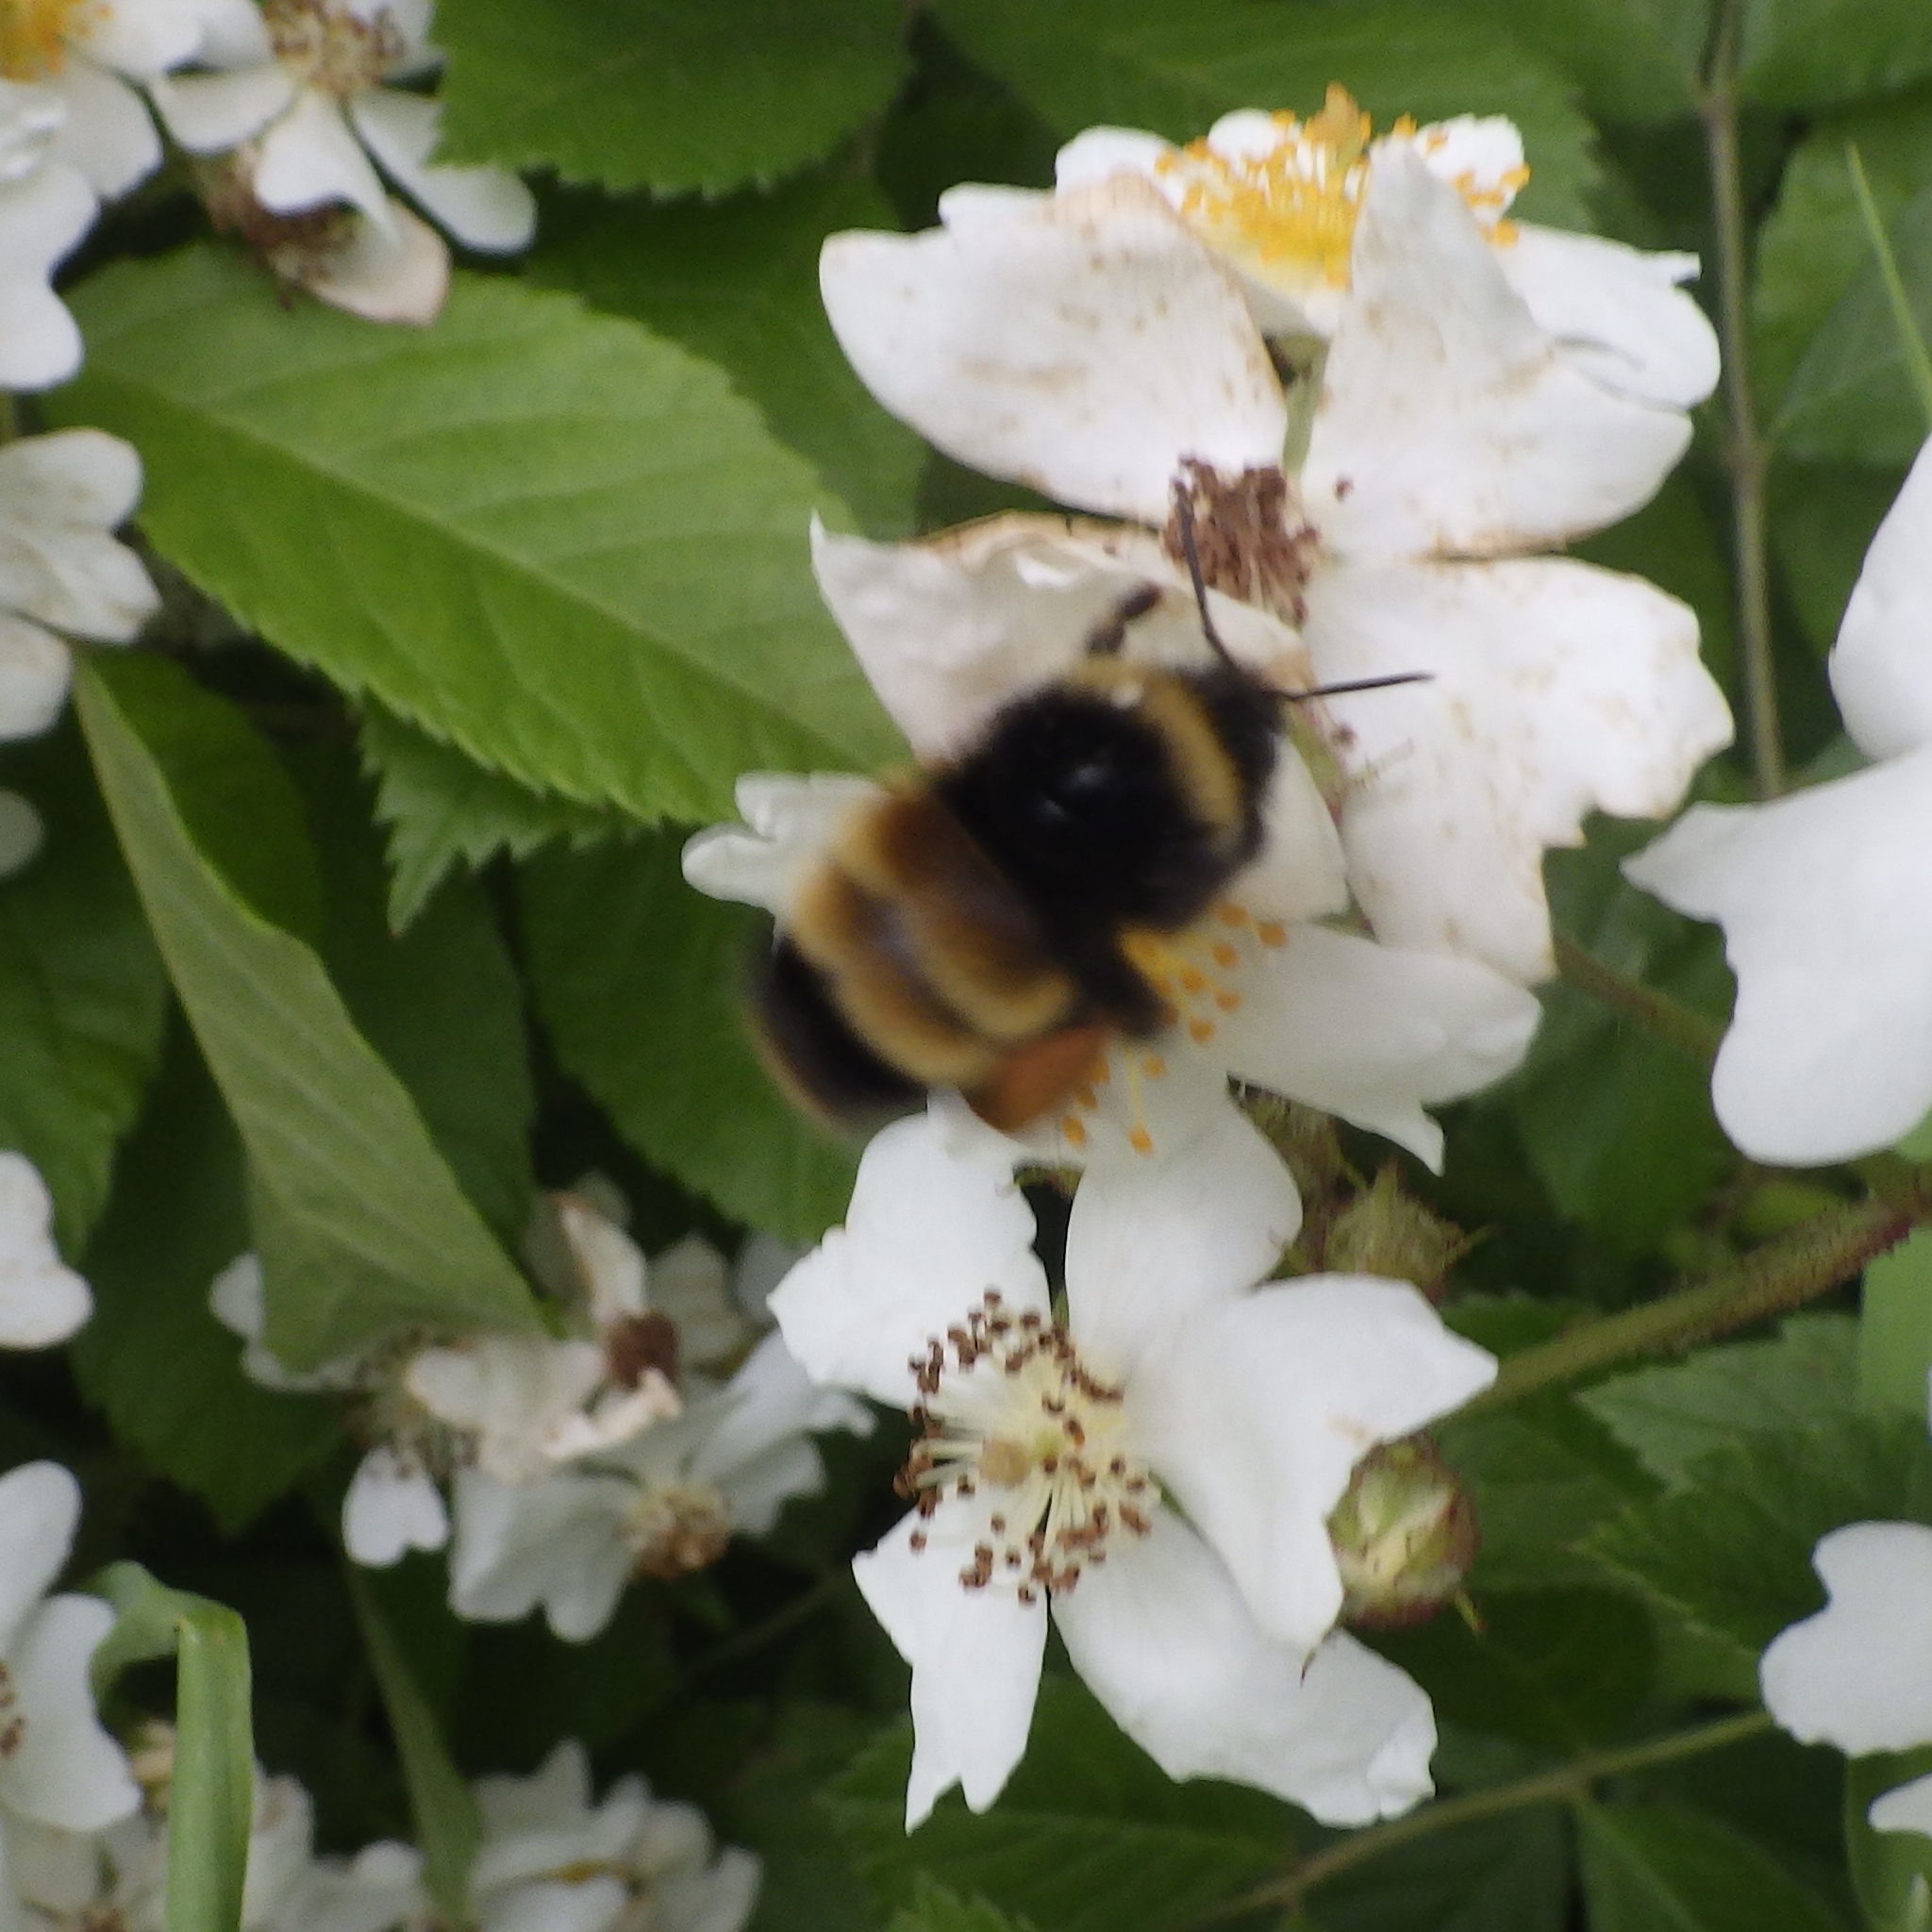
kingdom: Animalia
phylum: Arthropoda
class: Insecta
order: Hymenoptera
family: Apidae
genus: Bombus
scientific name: Bombus terricola
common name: Yellow-banded bumble bee
